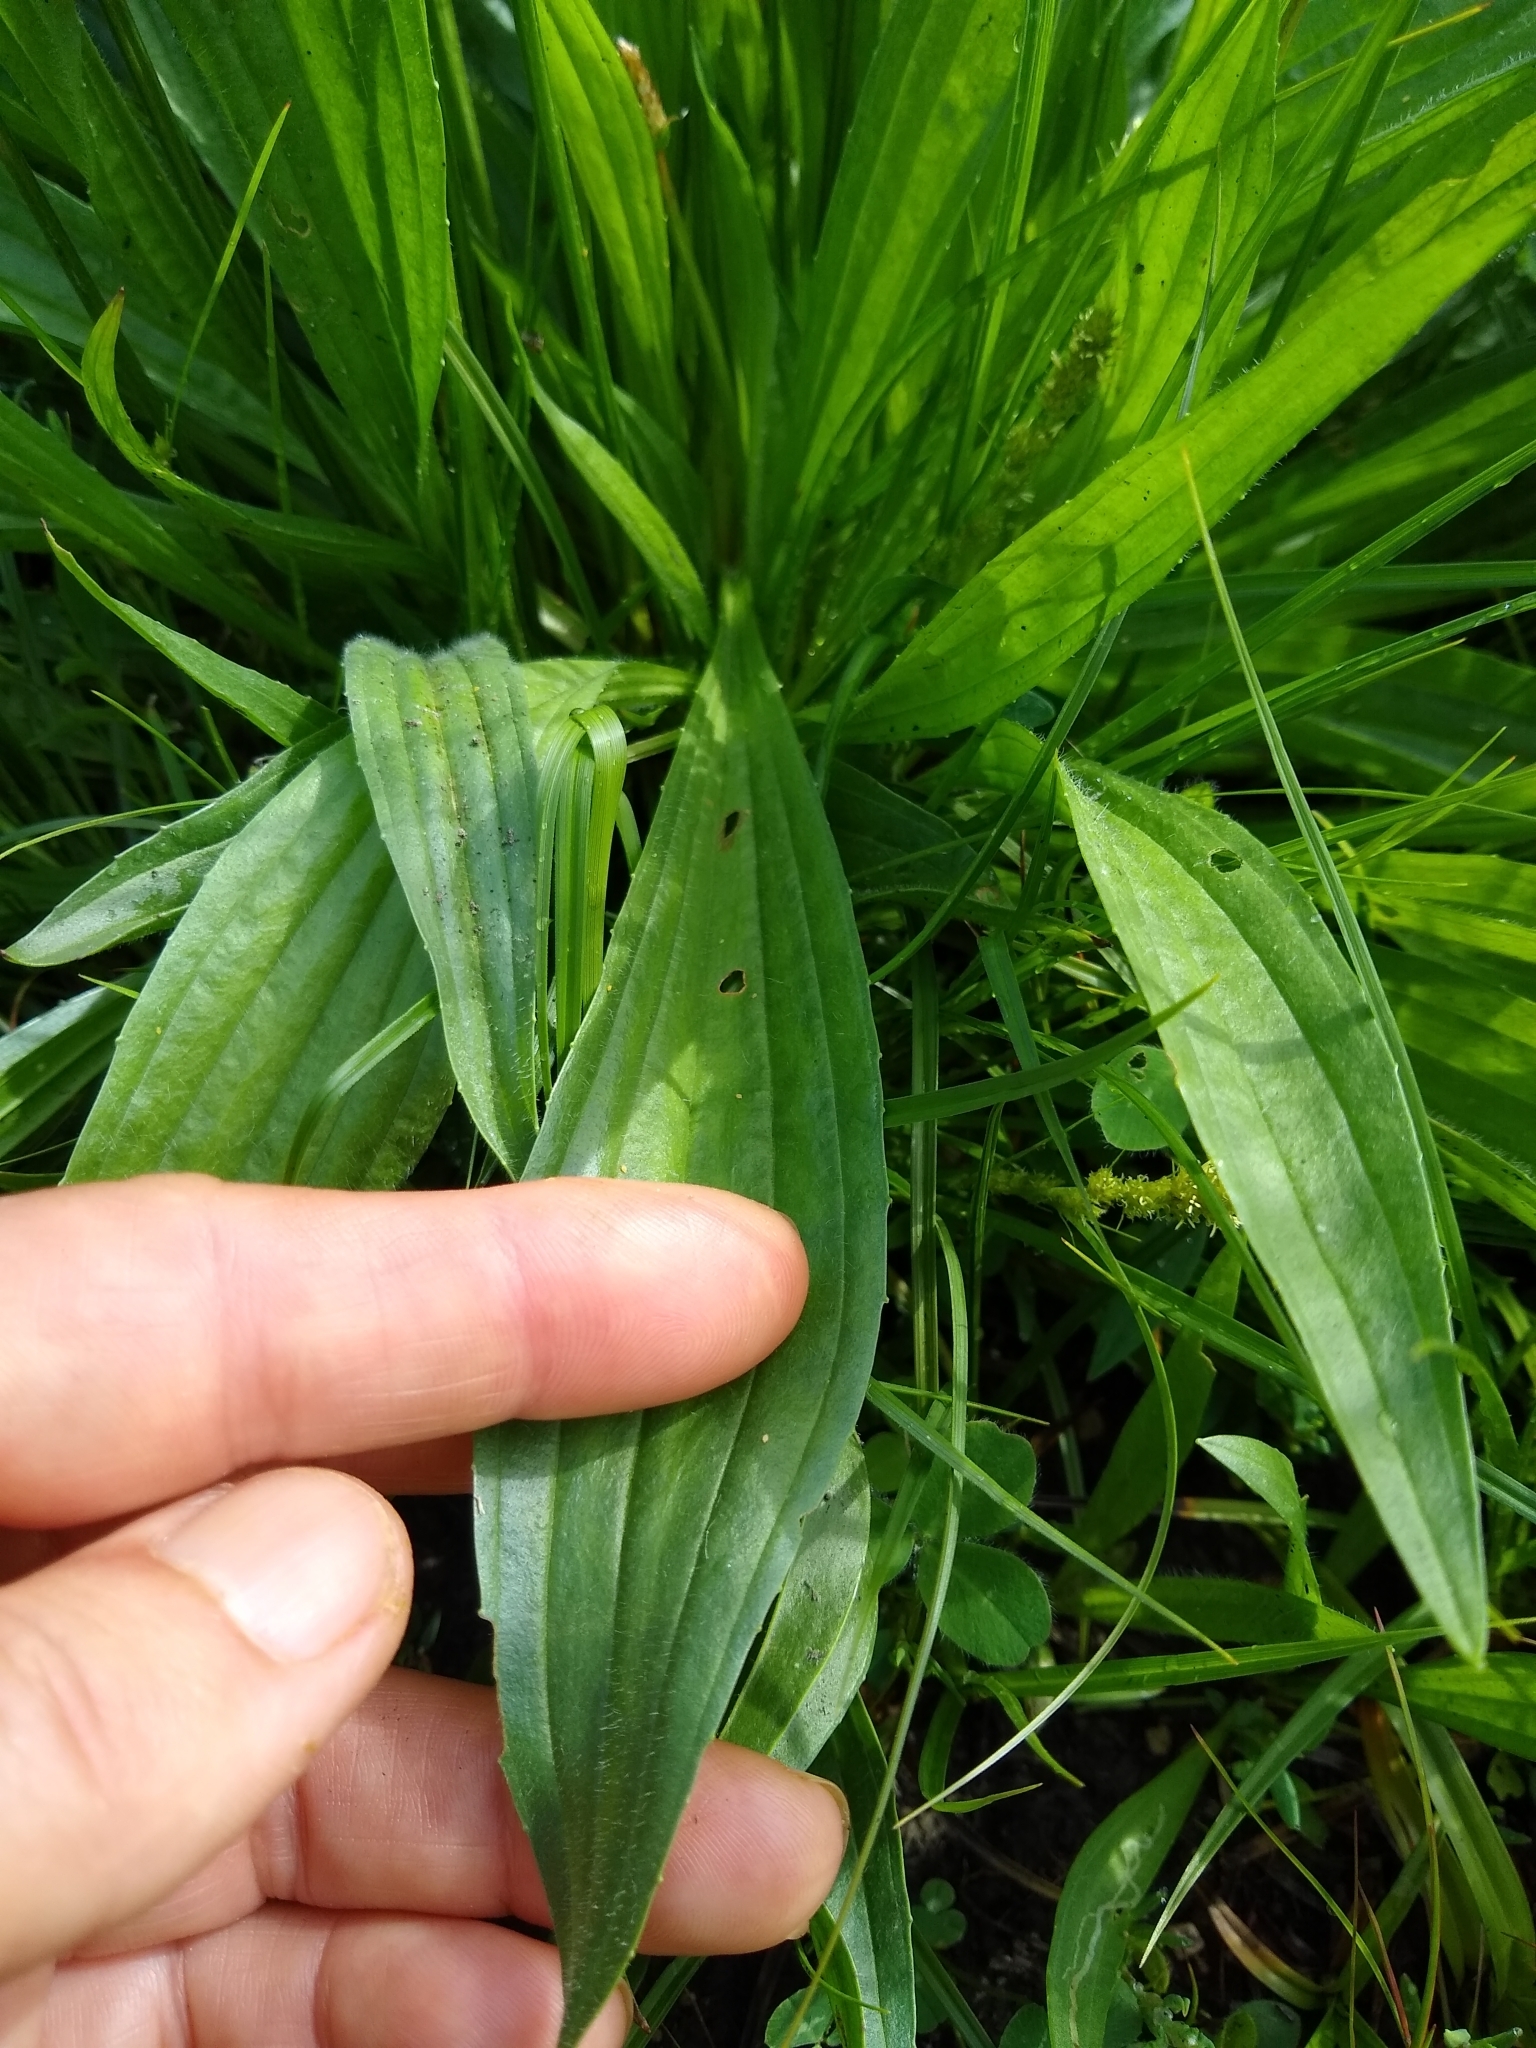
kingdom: Plantae
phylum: Tracheophyta
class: Magnoliopsida
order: Lamiales
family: Plantaginaceae
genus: Plantago
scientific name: Plantago lanceolata
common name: Ribwort plantain
